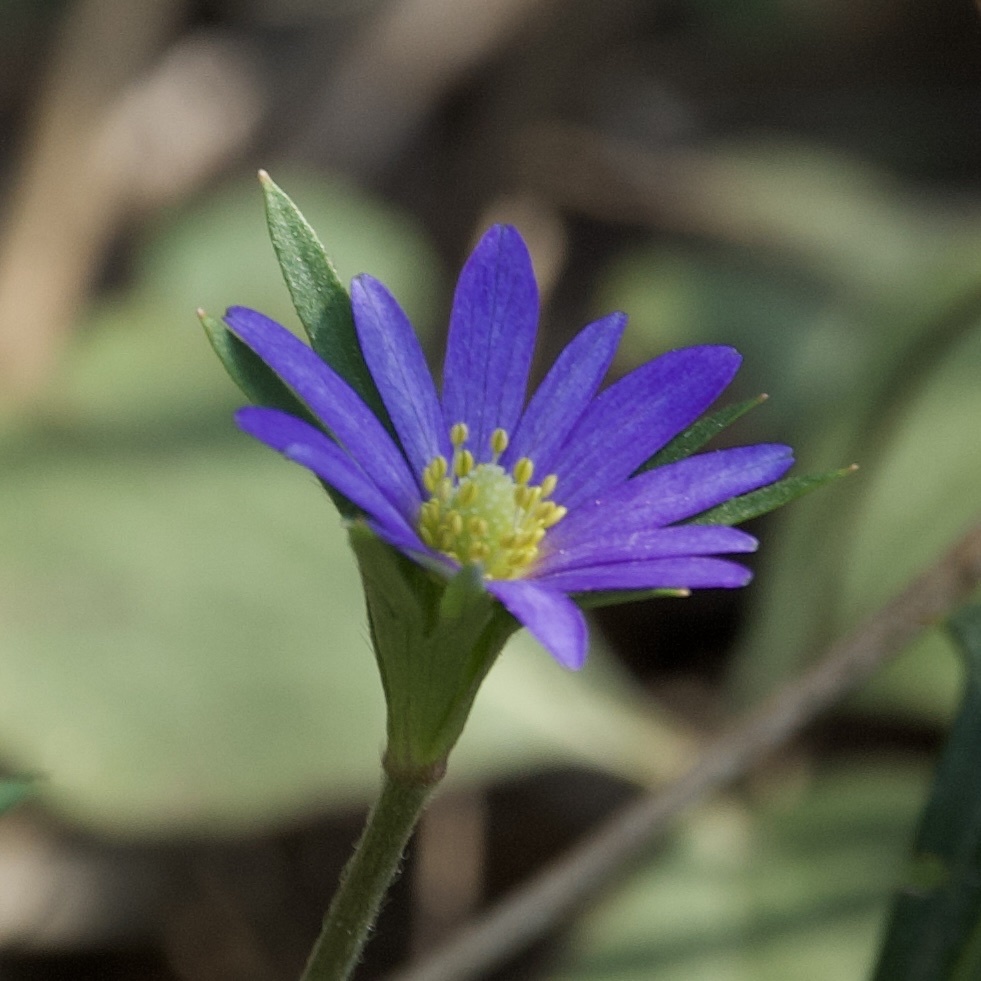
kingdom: Plantae
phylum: Tracheophyta
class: Magnoliopsida
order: Ranunculales
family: Ranunculaceae
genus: Anemone
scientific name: Anemone berlandieri
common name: Ten-petal anemone
